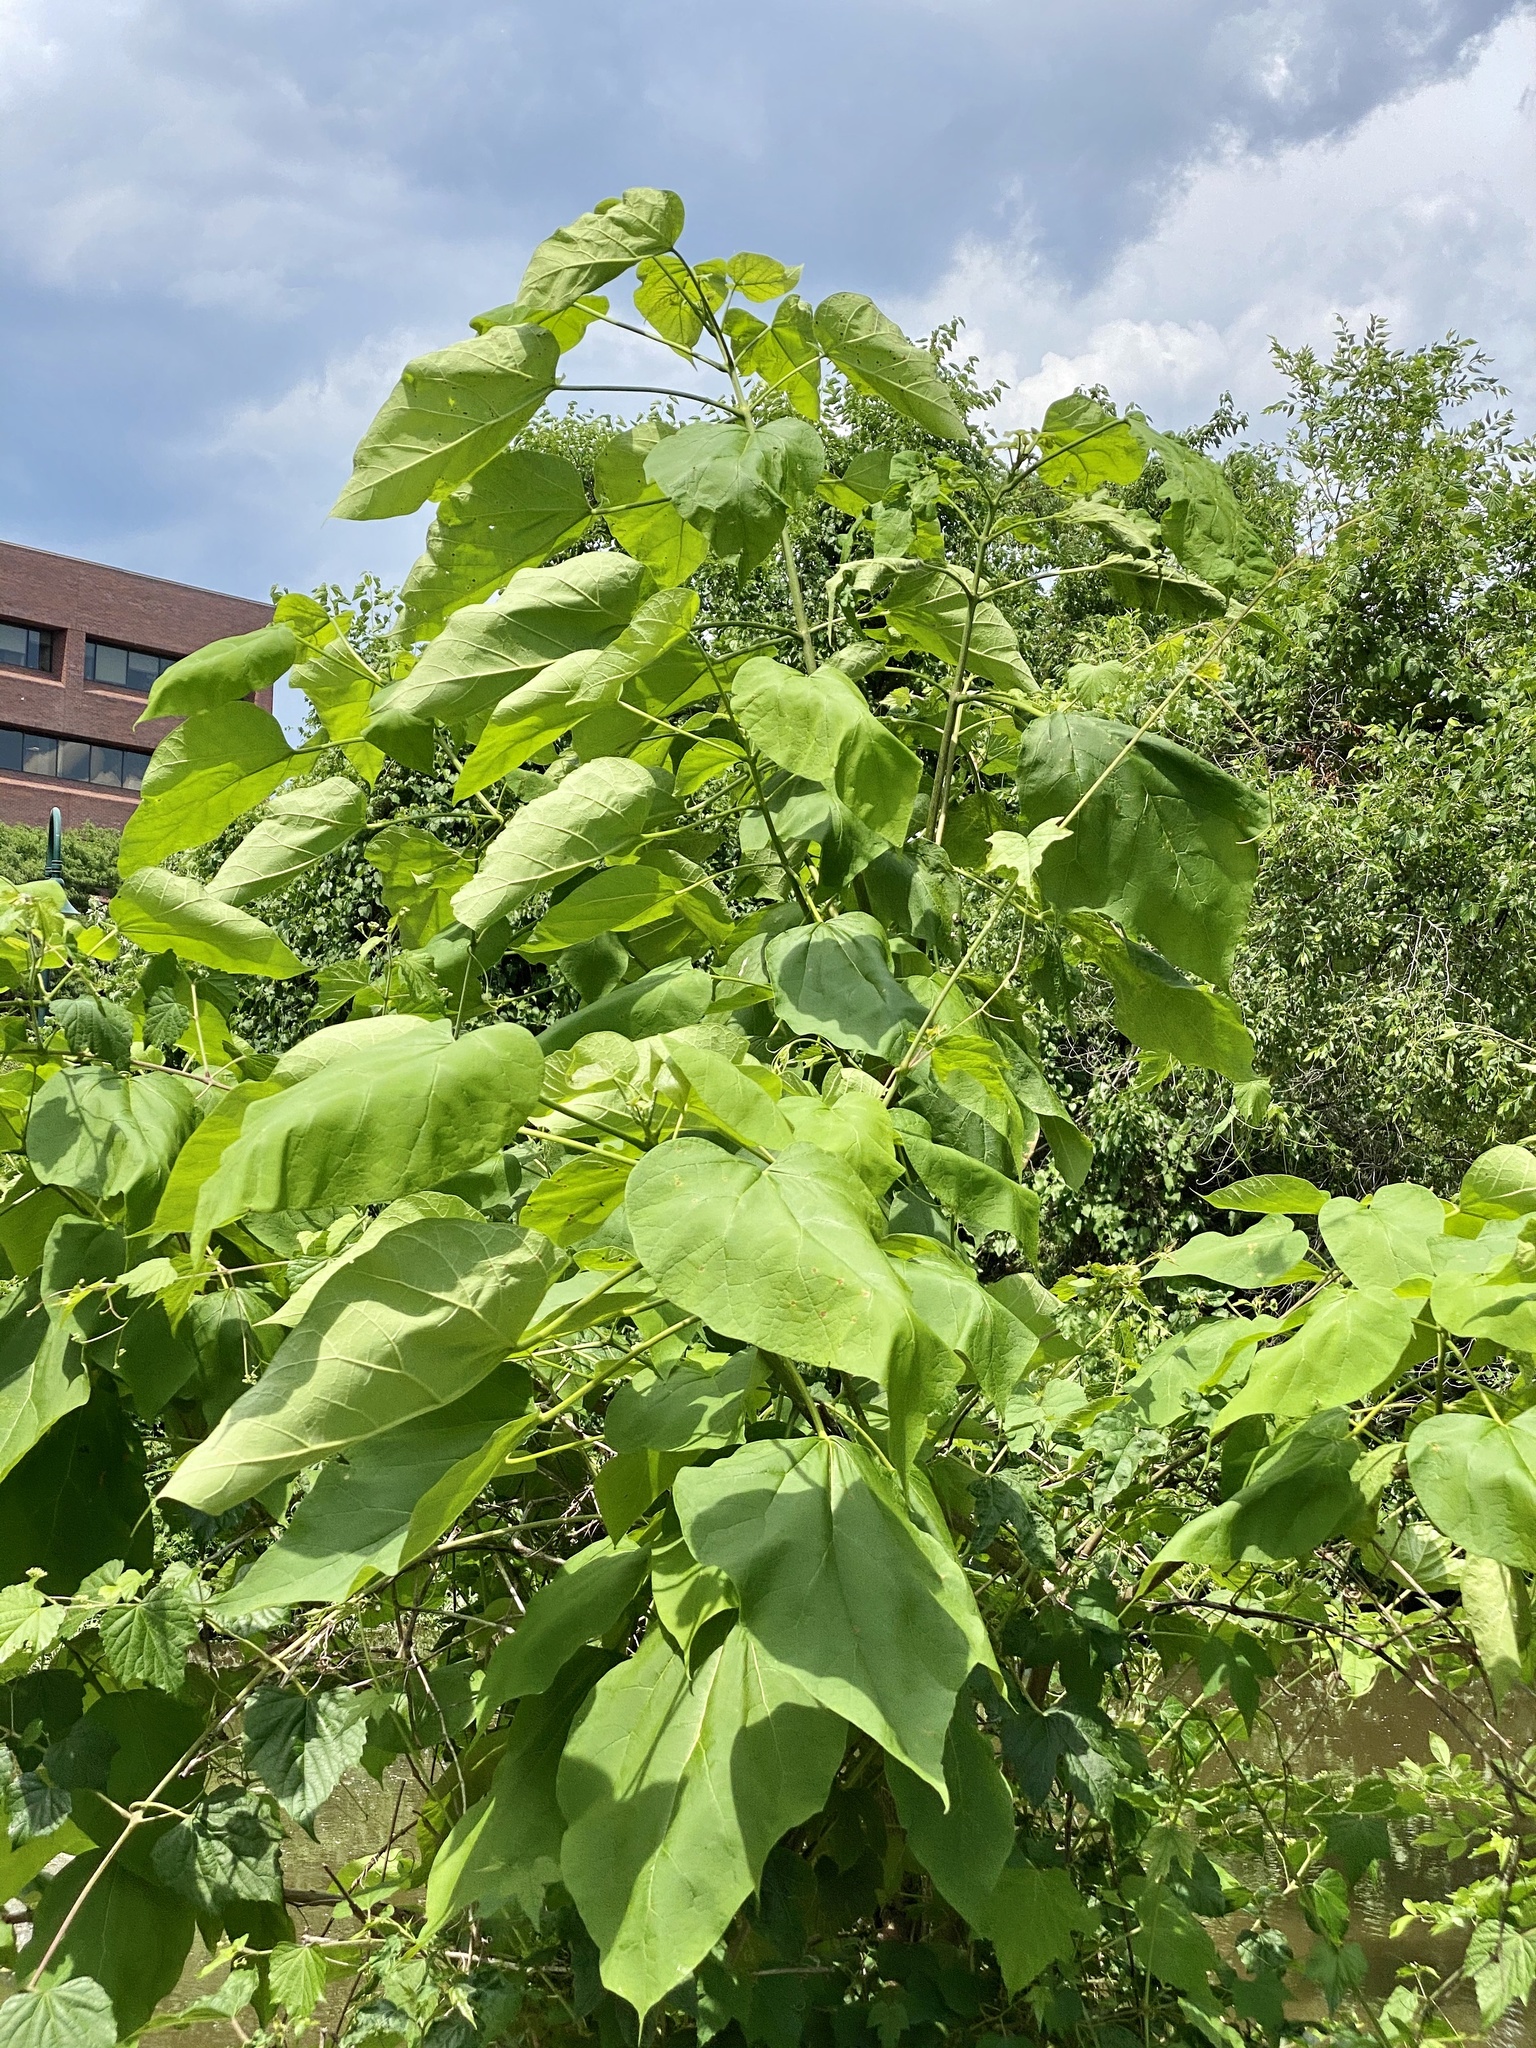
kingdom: Plantae
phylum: Tracheophyta
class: Magnoliopsida
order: Lamiales
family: Paulowniaceae
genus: Paulownia
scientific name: Paulownia tomentosa
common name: Foxglove-tree
